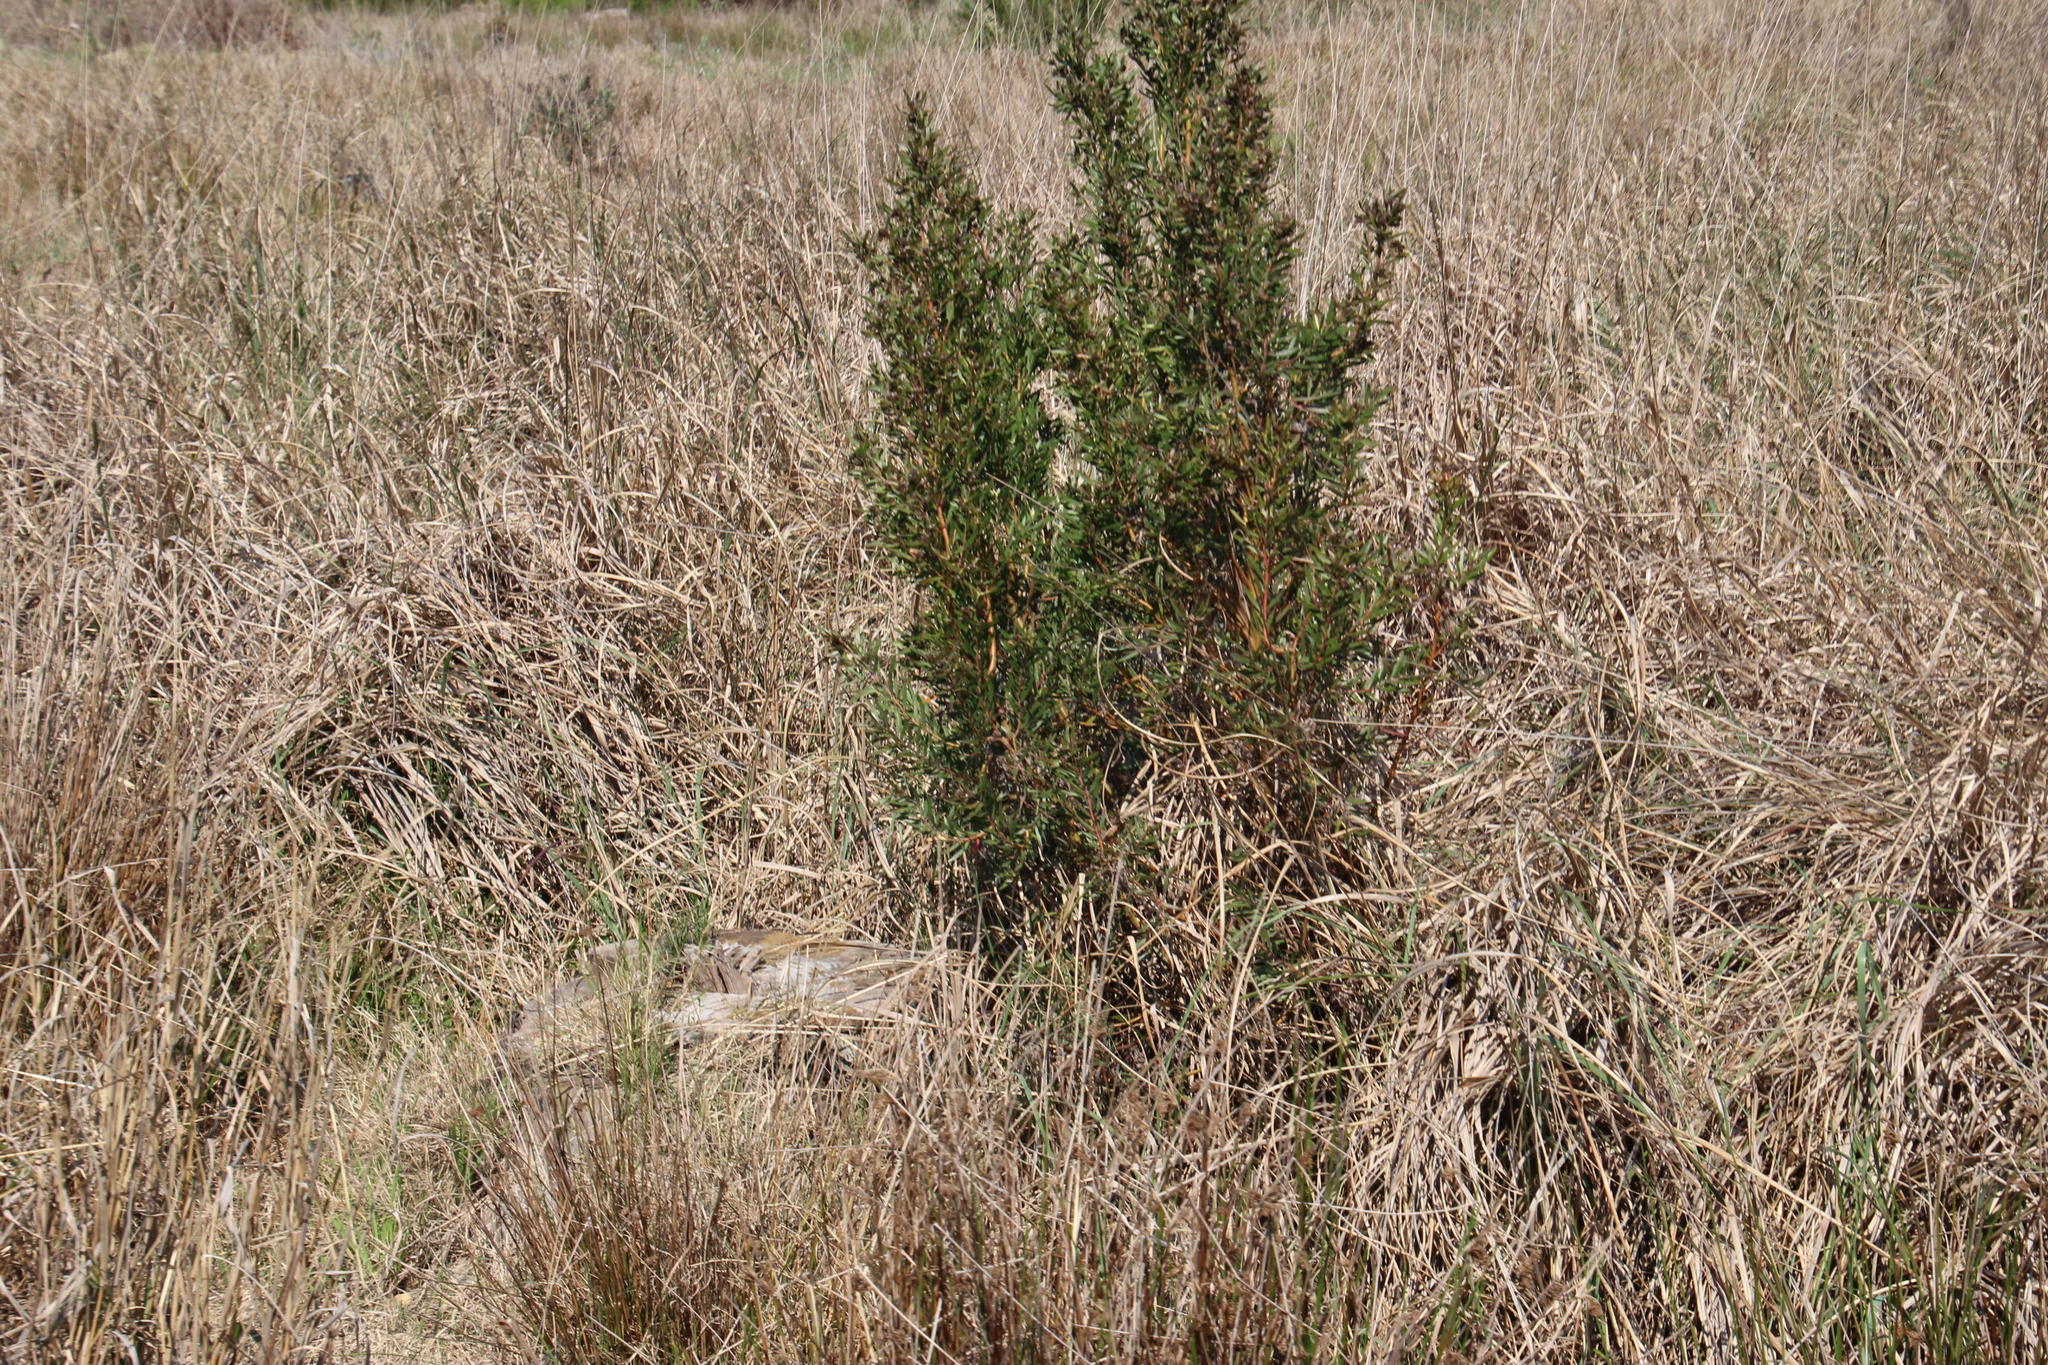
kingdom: Plantae
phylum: Tracheophyta
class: Magnoliopsida
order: Proteales
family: Proteaceae
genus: Leucadendron
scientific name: Leucadendron macowanii
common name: Acacia-leaf conebush
